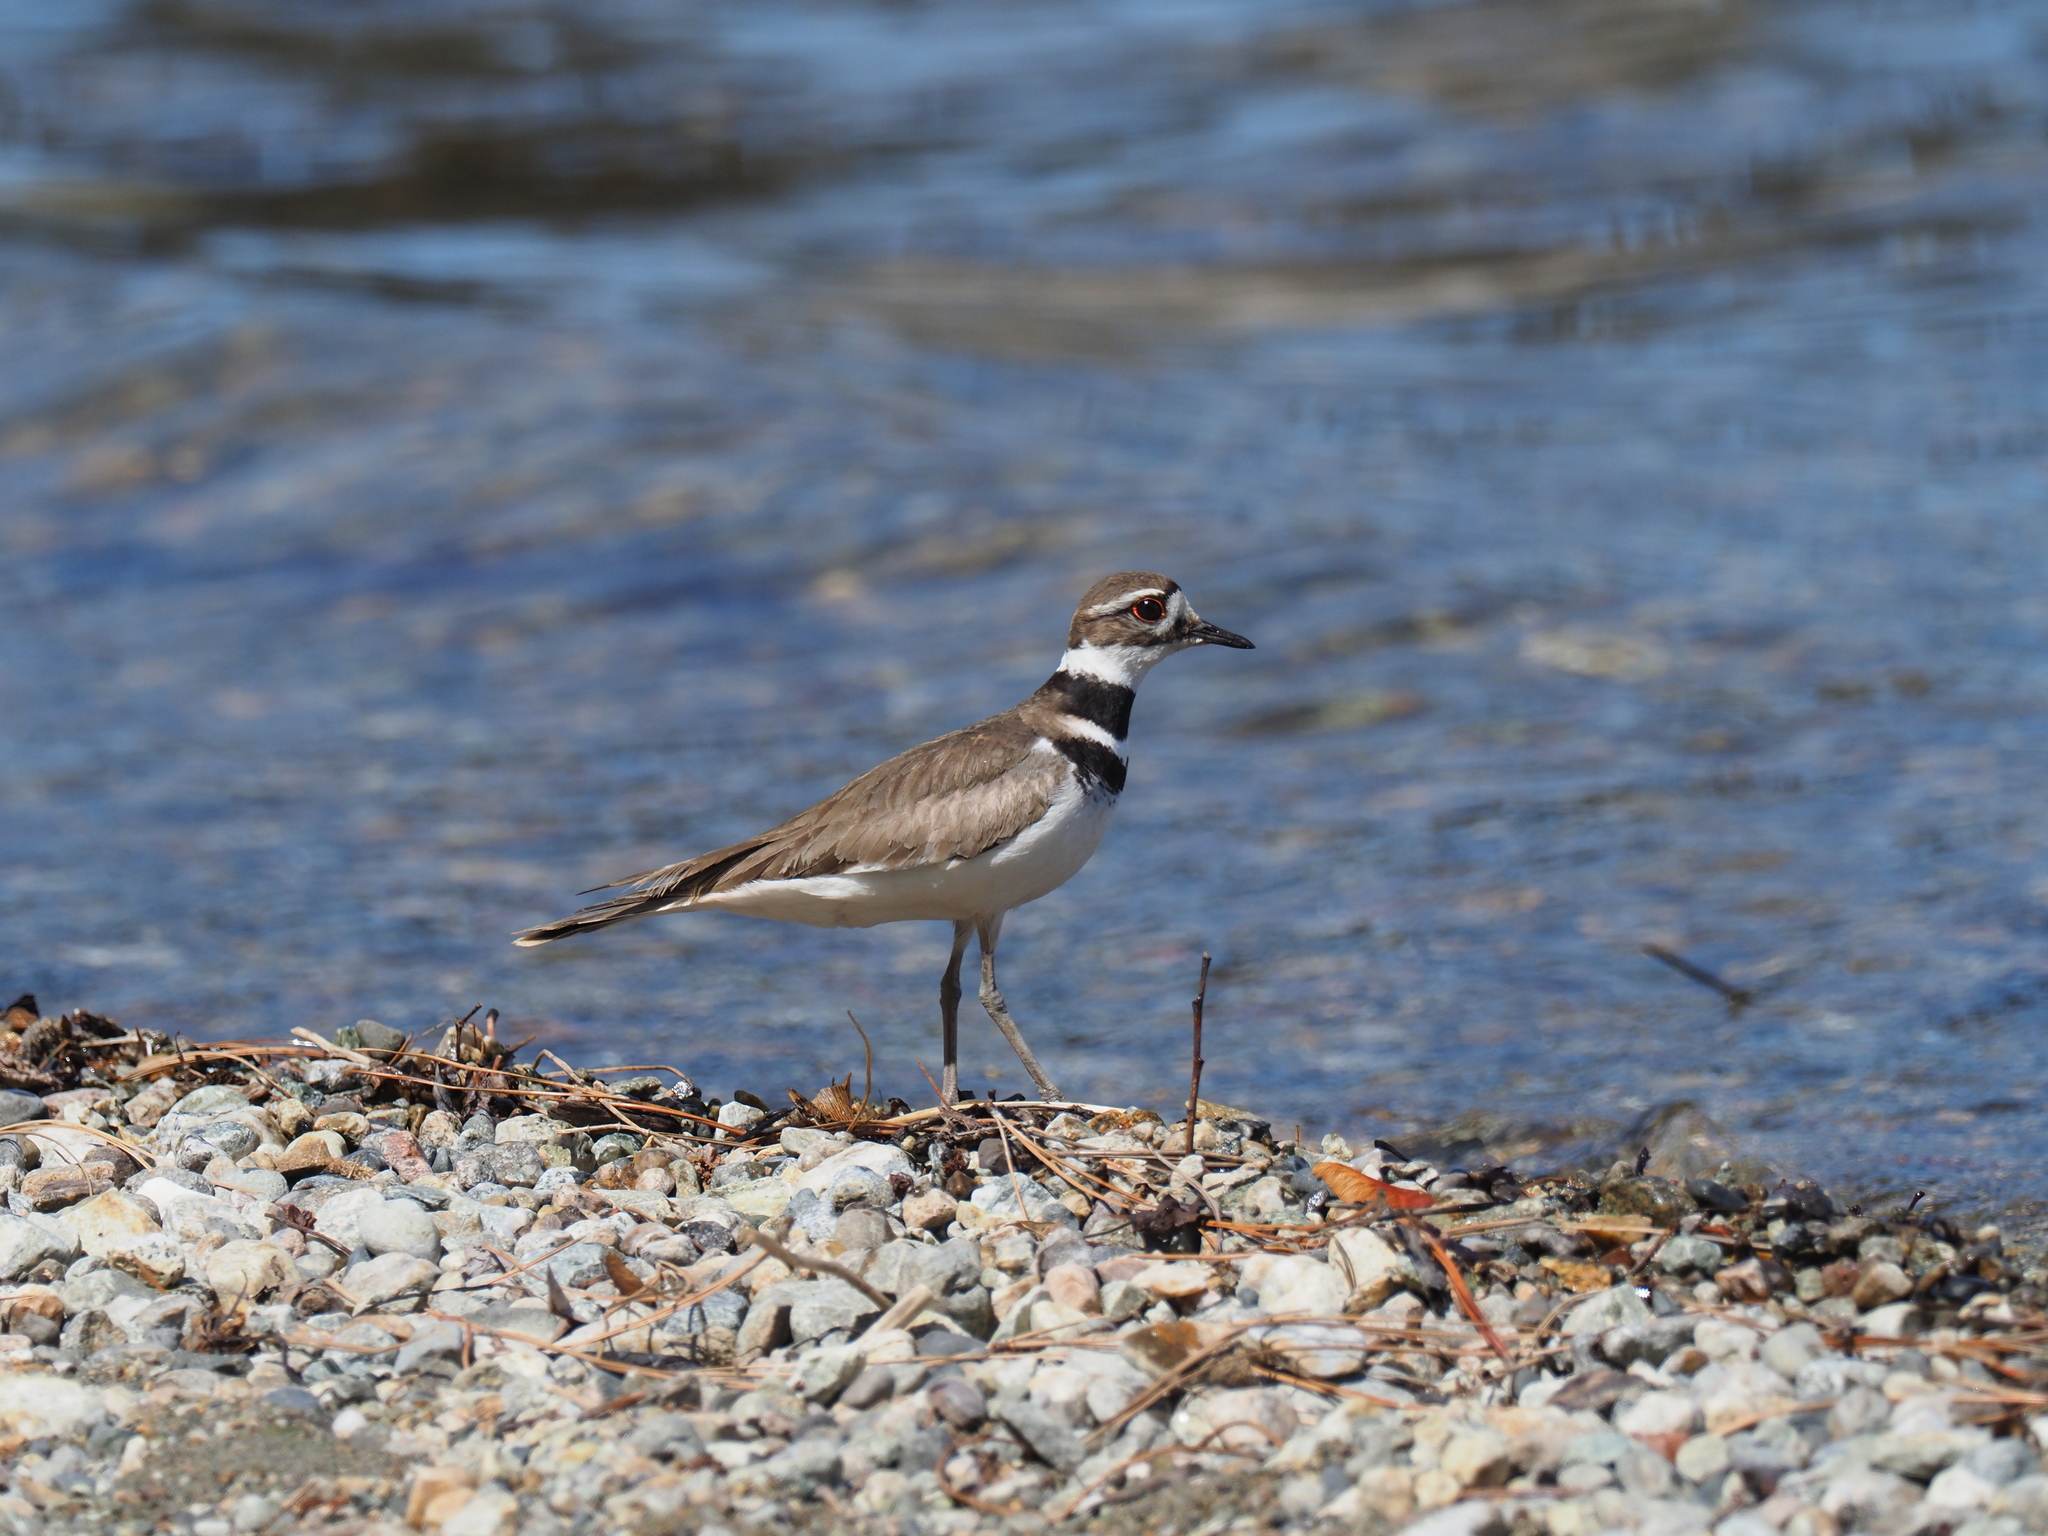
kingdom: Animalia
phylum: Chordata
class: Aves
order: Charadriiformes
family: Charadriidae
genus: Charadrius
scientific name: Charadrius vociferus
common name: Killdeer
